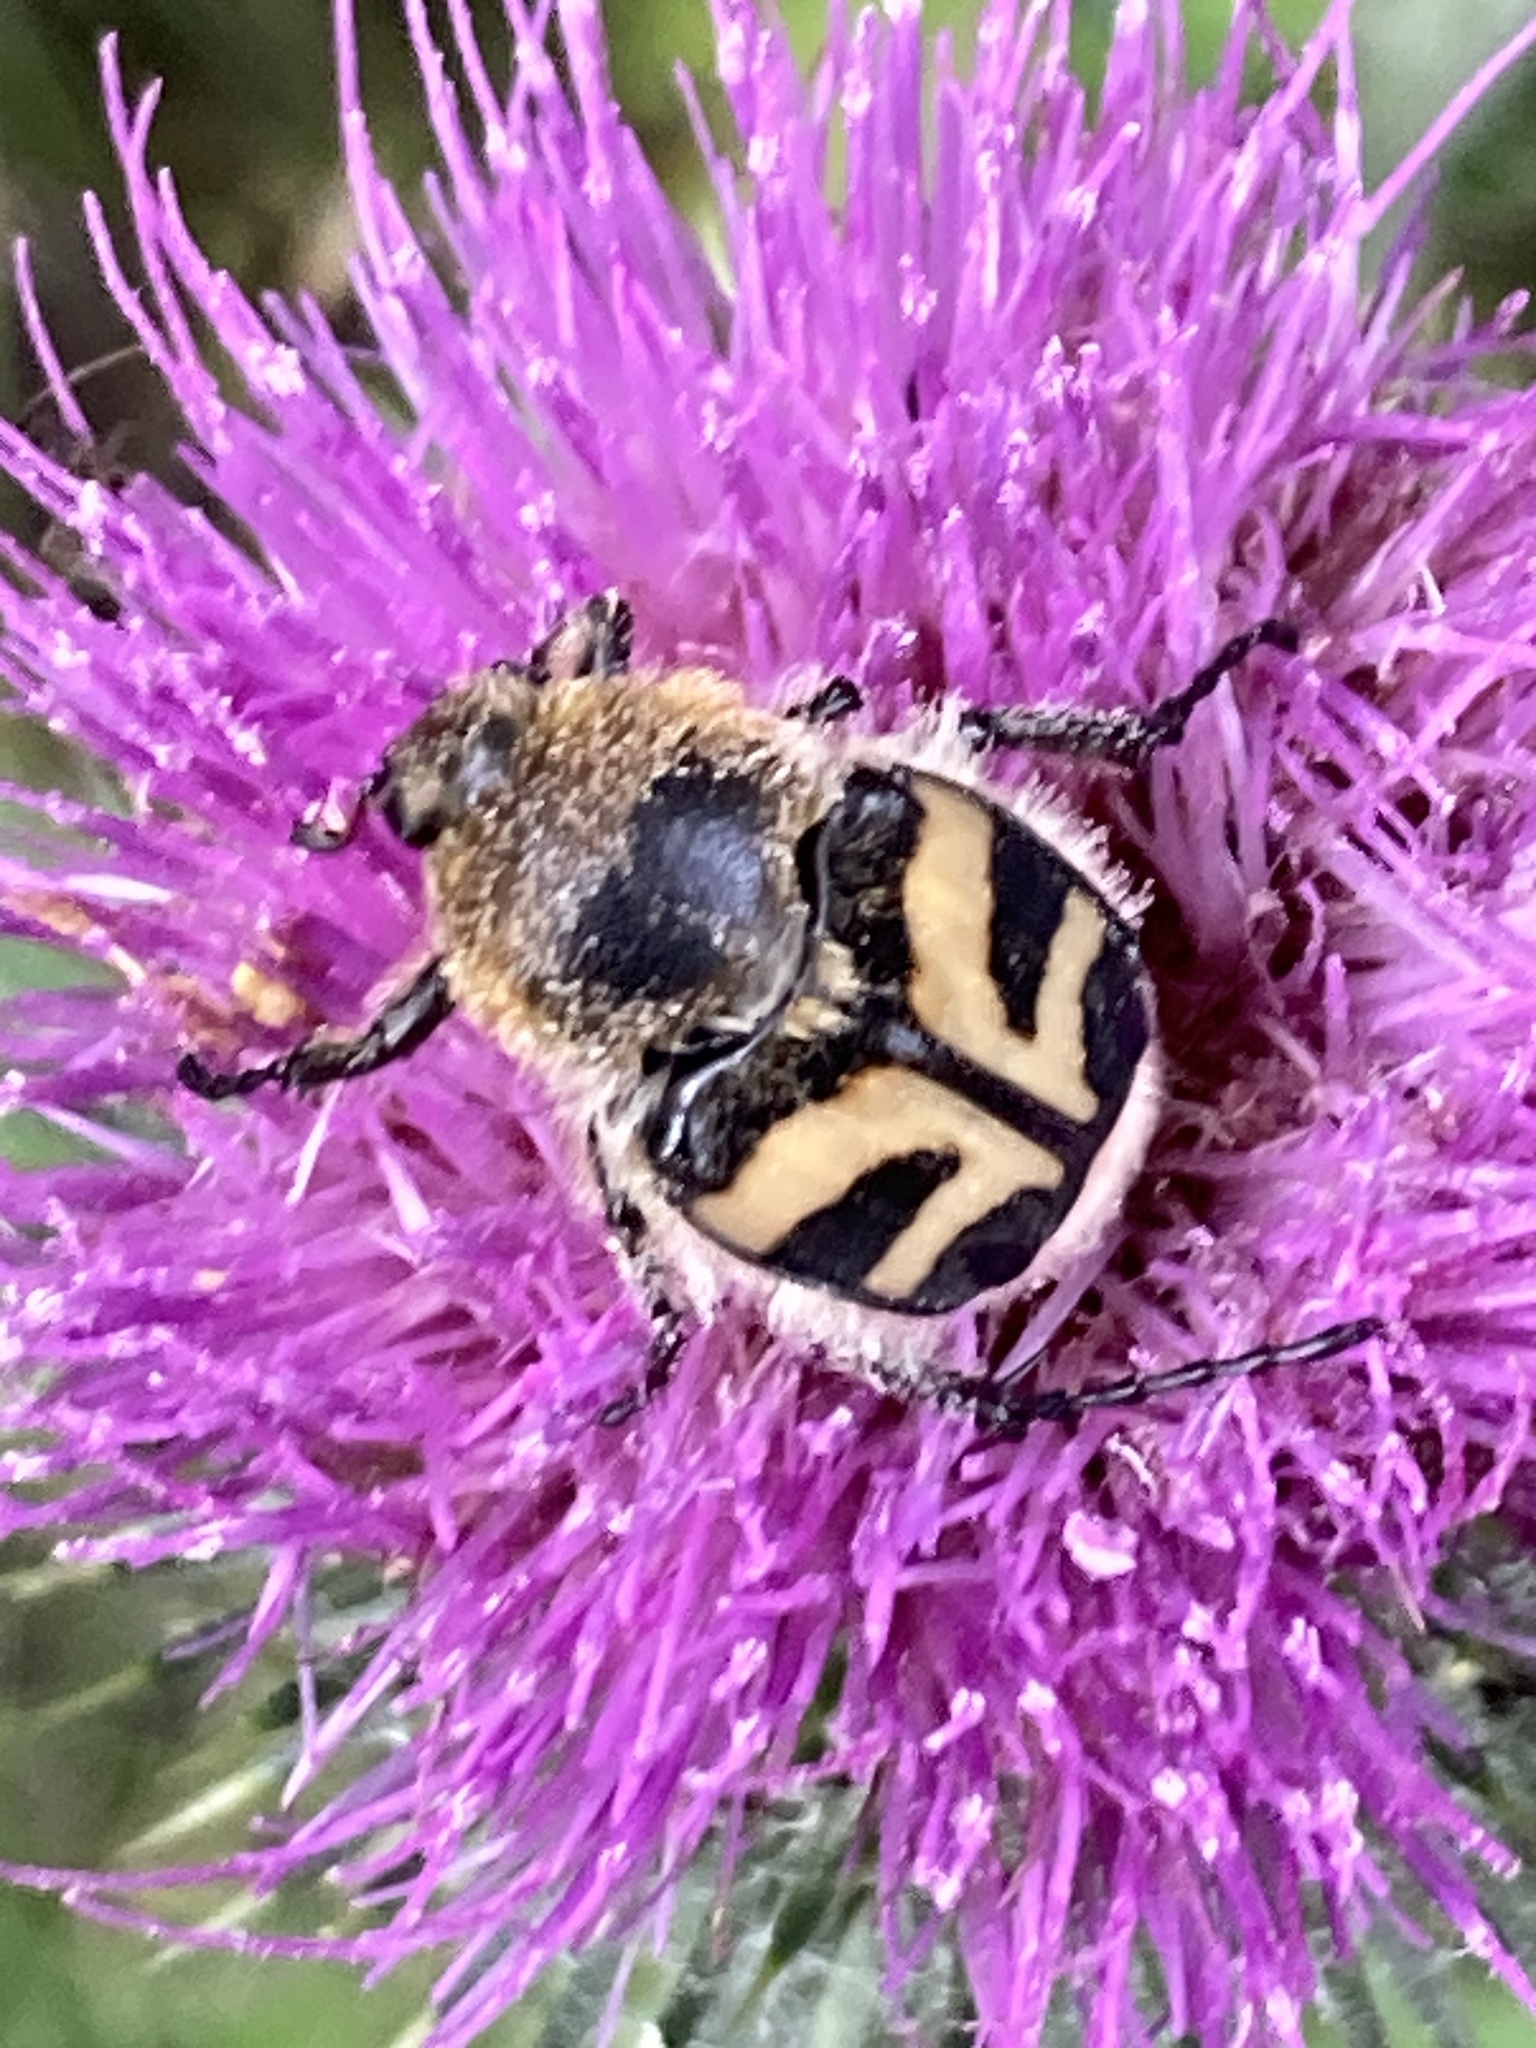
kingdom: Animalia
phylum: Arthropoda
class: Insecta
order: Coleoptera
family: Scarabaeidae
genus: Trichius
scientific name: Trichius fasciatus
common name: Bee beetle
